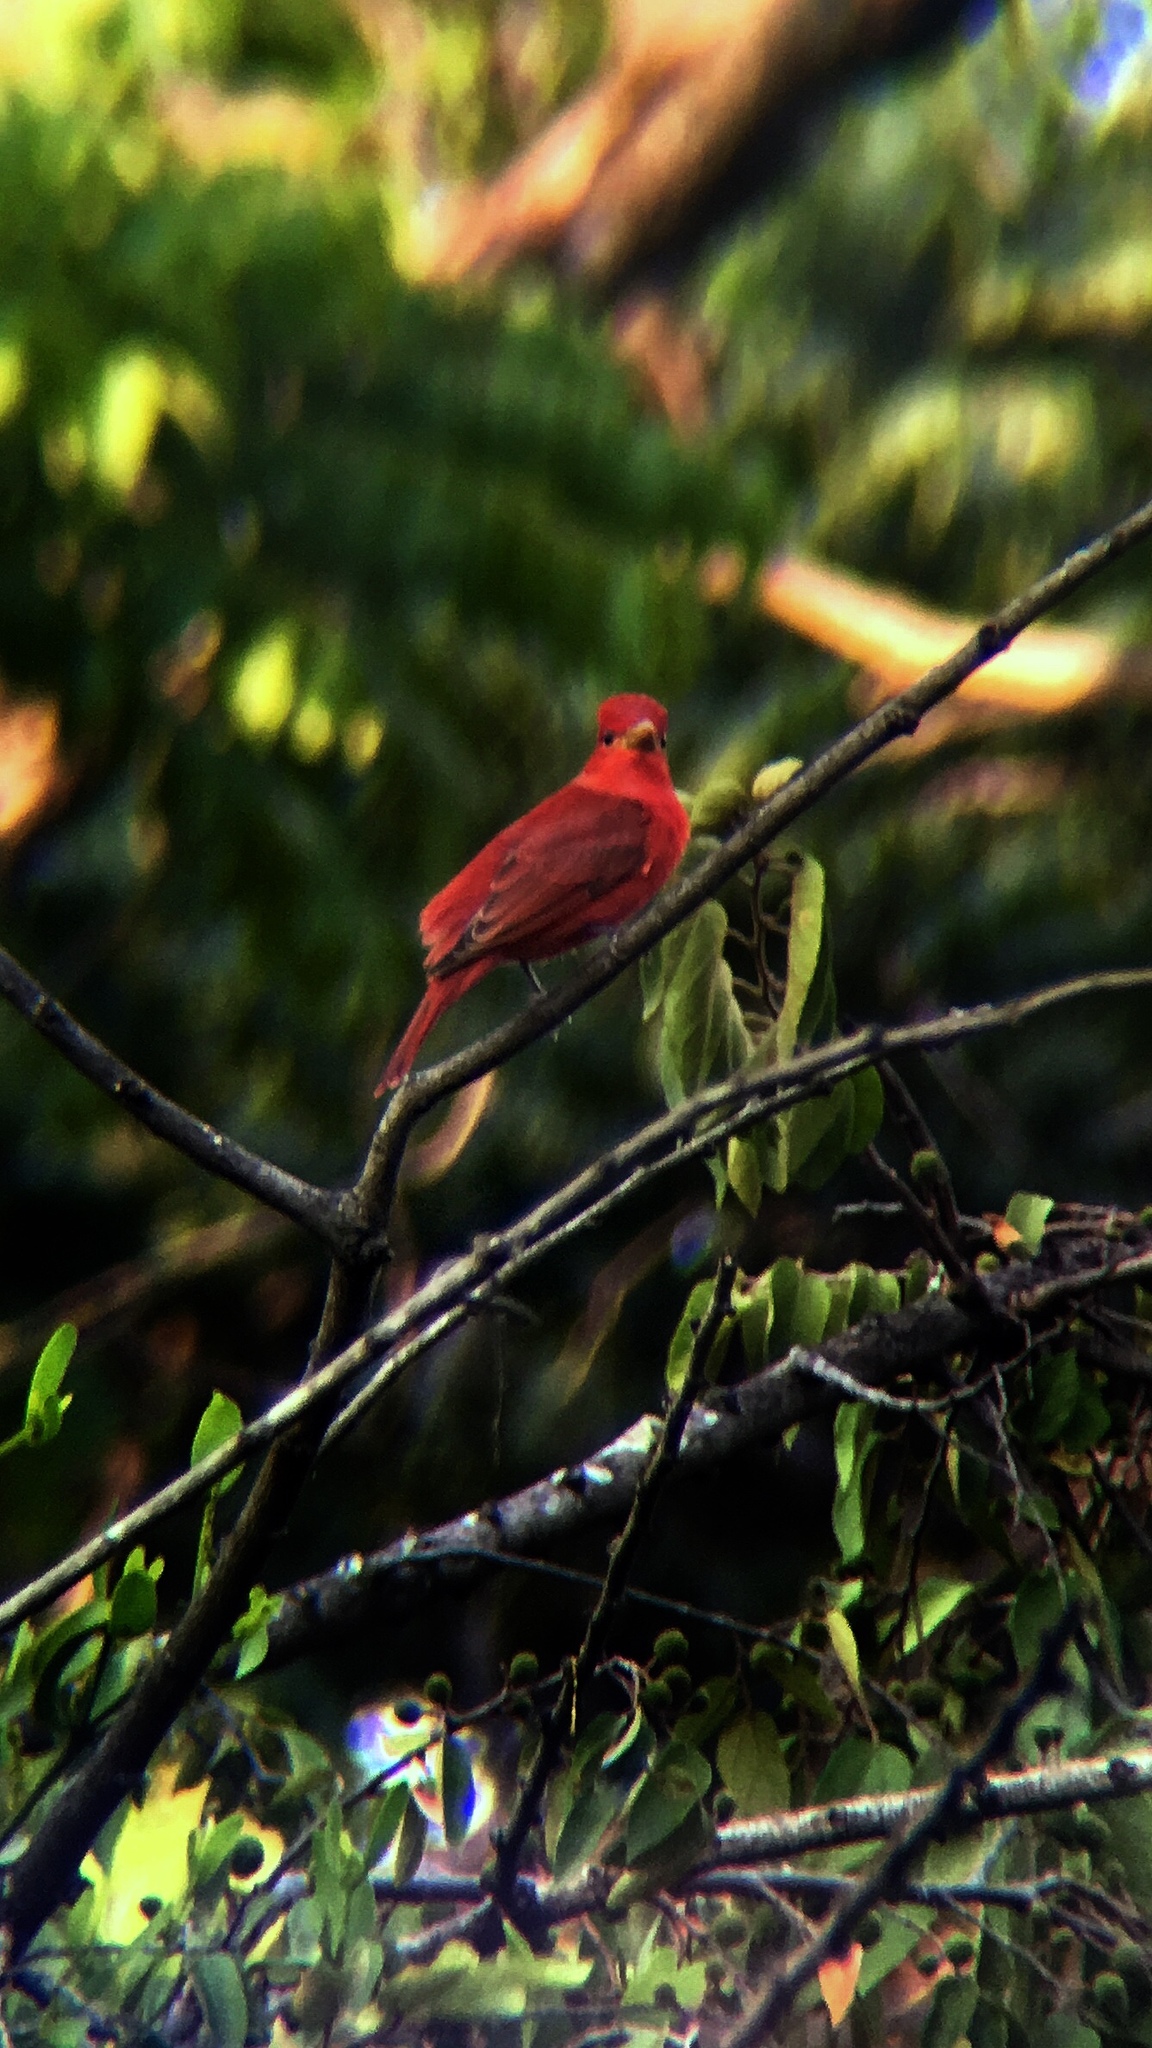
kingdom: Animalia
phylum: Chordata
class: Aves
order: Passeriformes
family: Cardinalidae
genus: Piranga
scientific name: Piranga rubra
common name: Summer tanager
